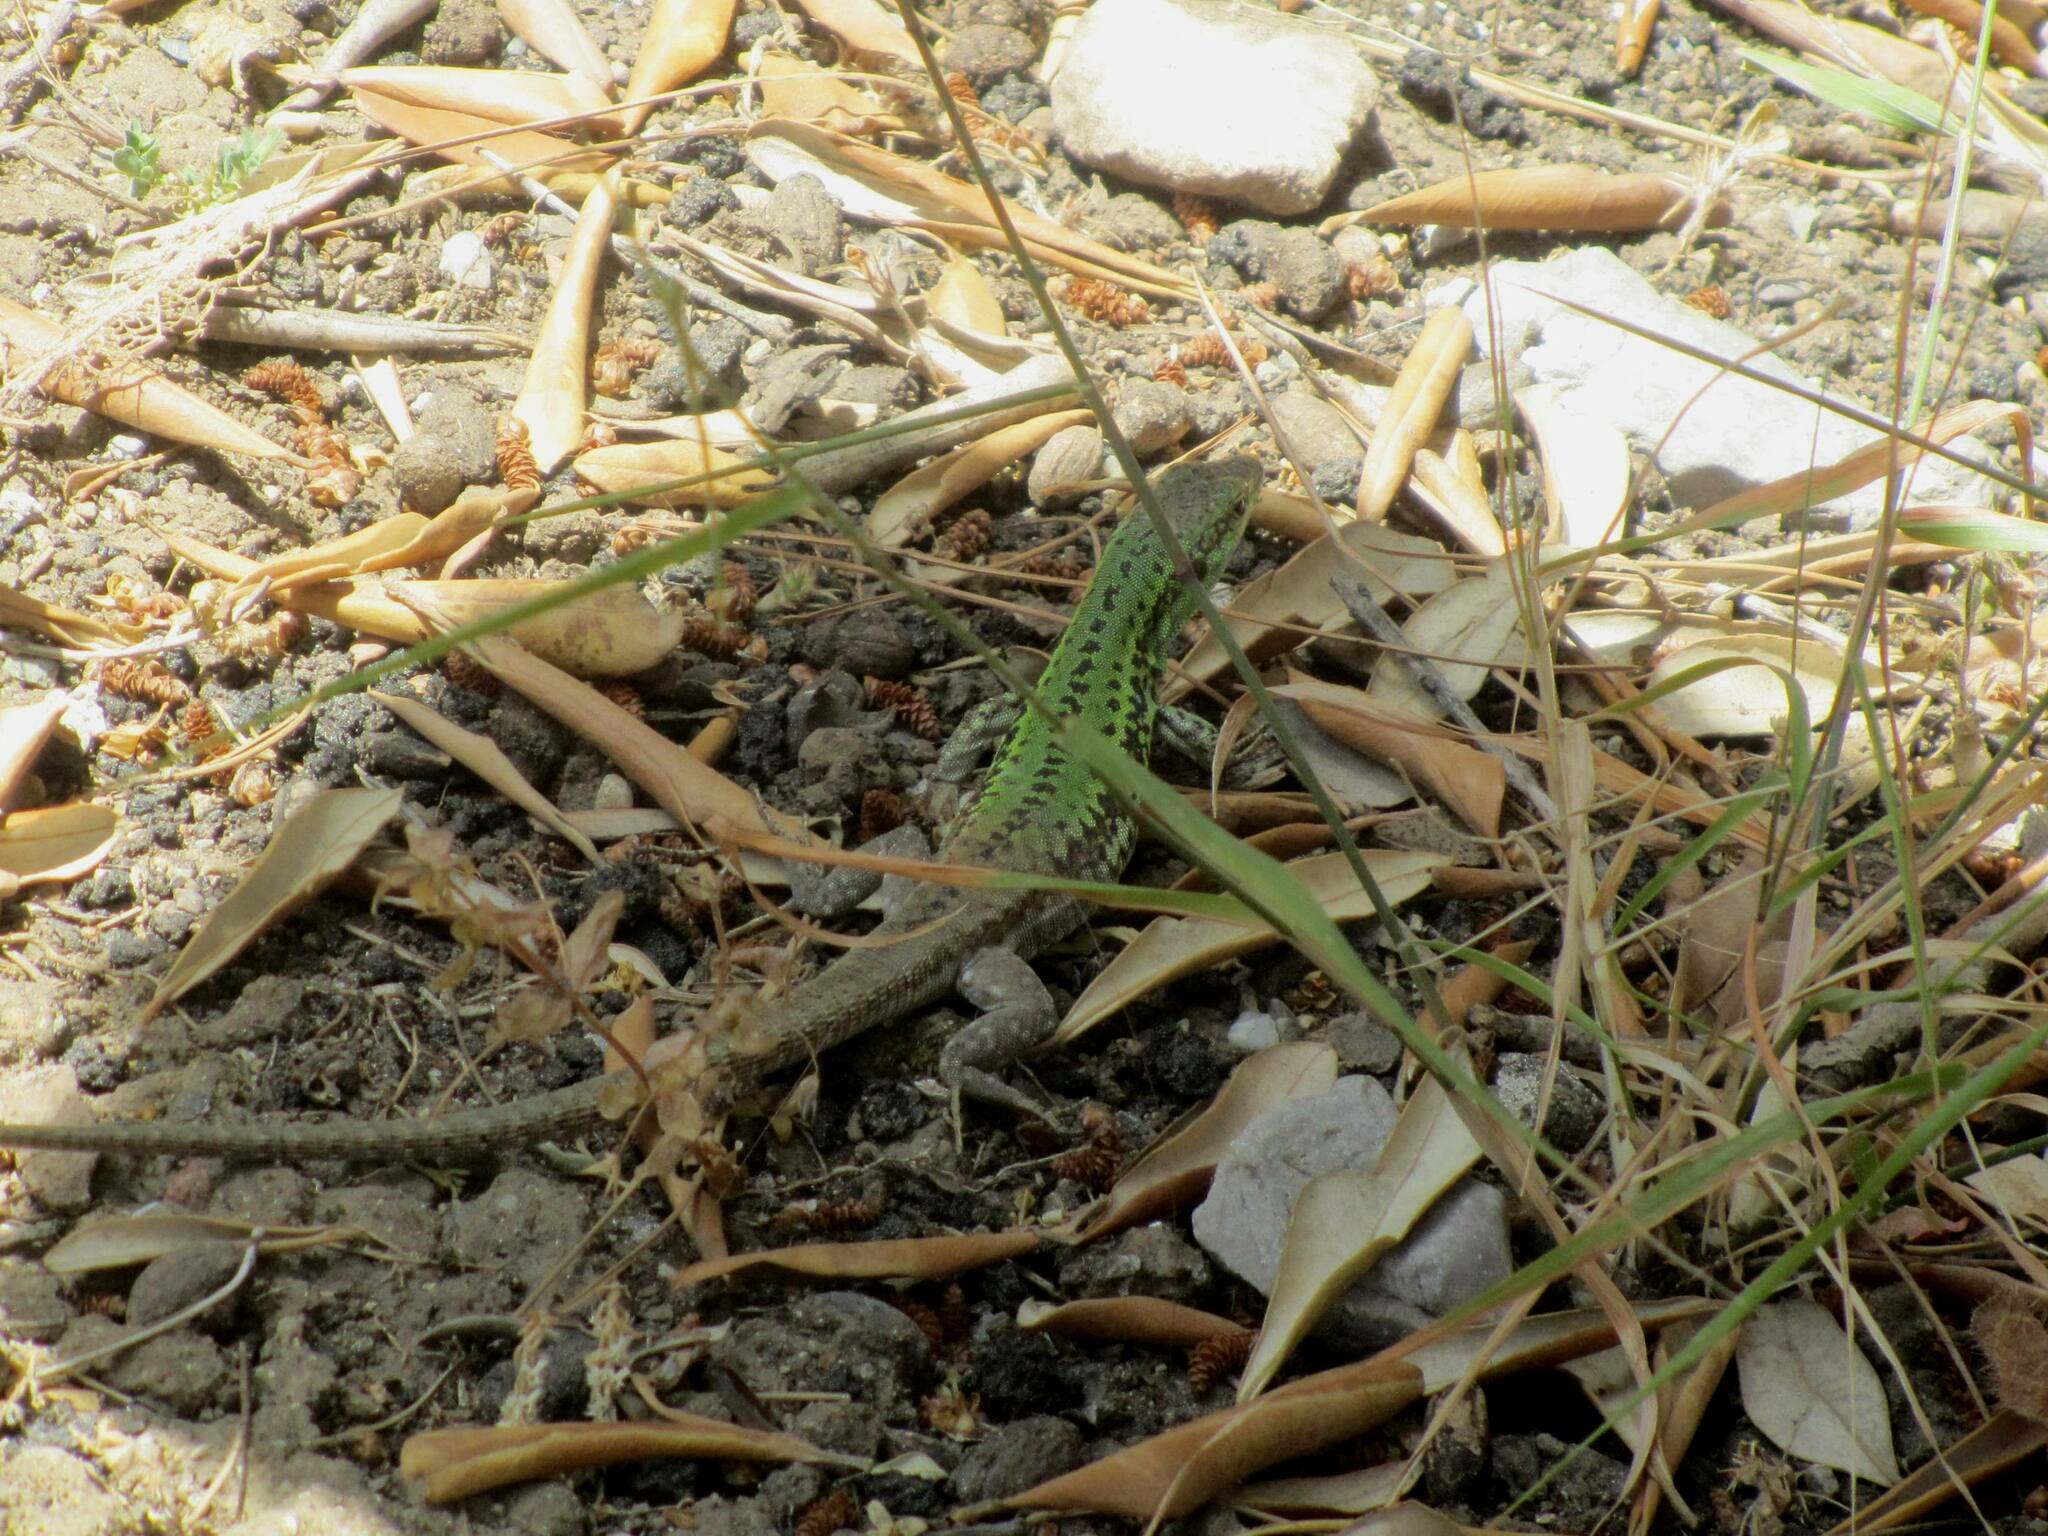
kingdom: Animalia
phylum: Chordata
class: Squamata
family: Lacertidae
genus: Podarcis
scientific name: Podarcis siculus
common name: Italian wall lizard
